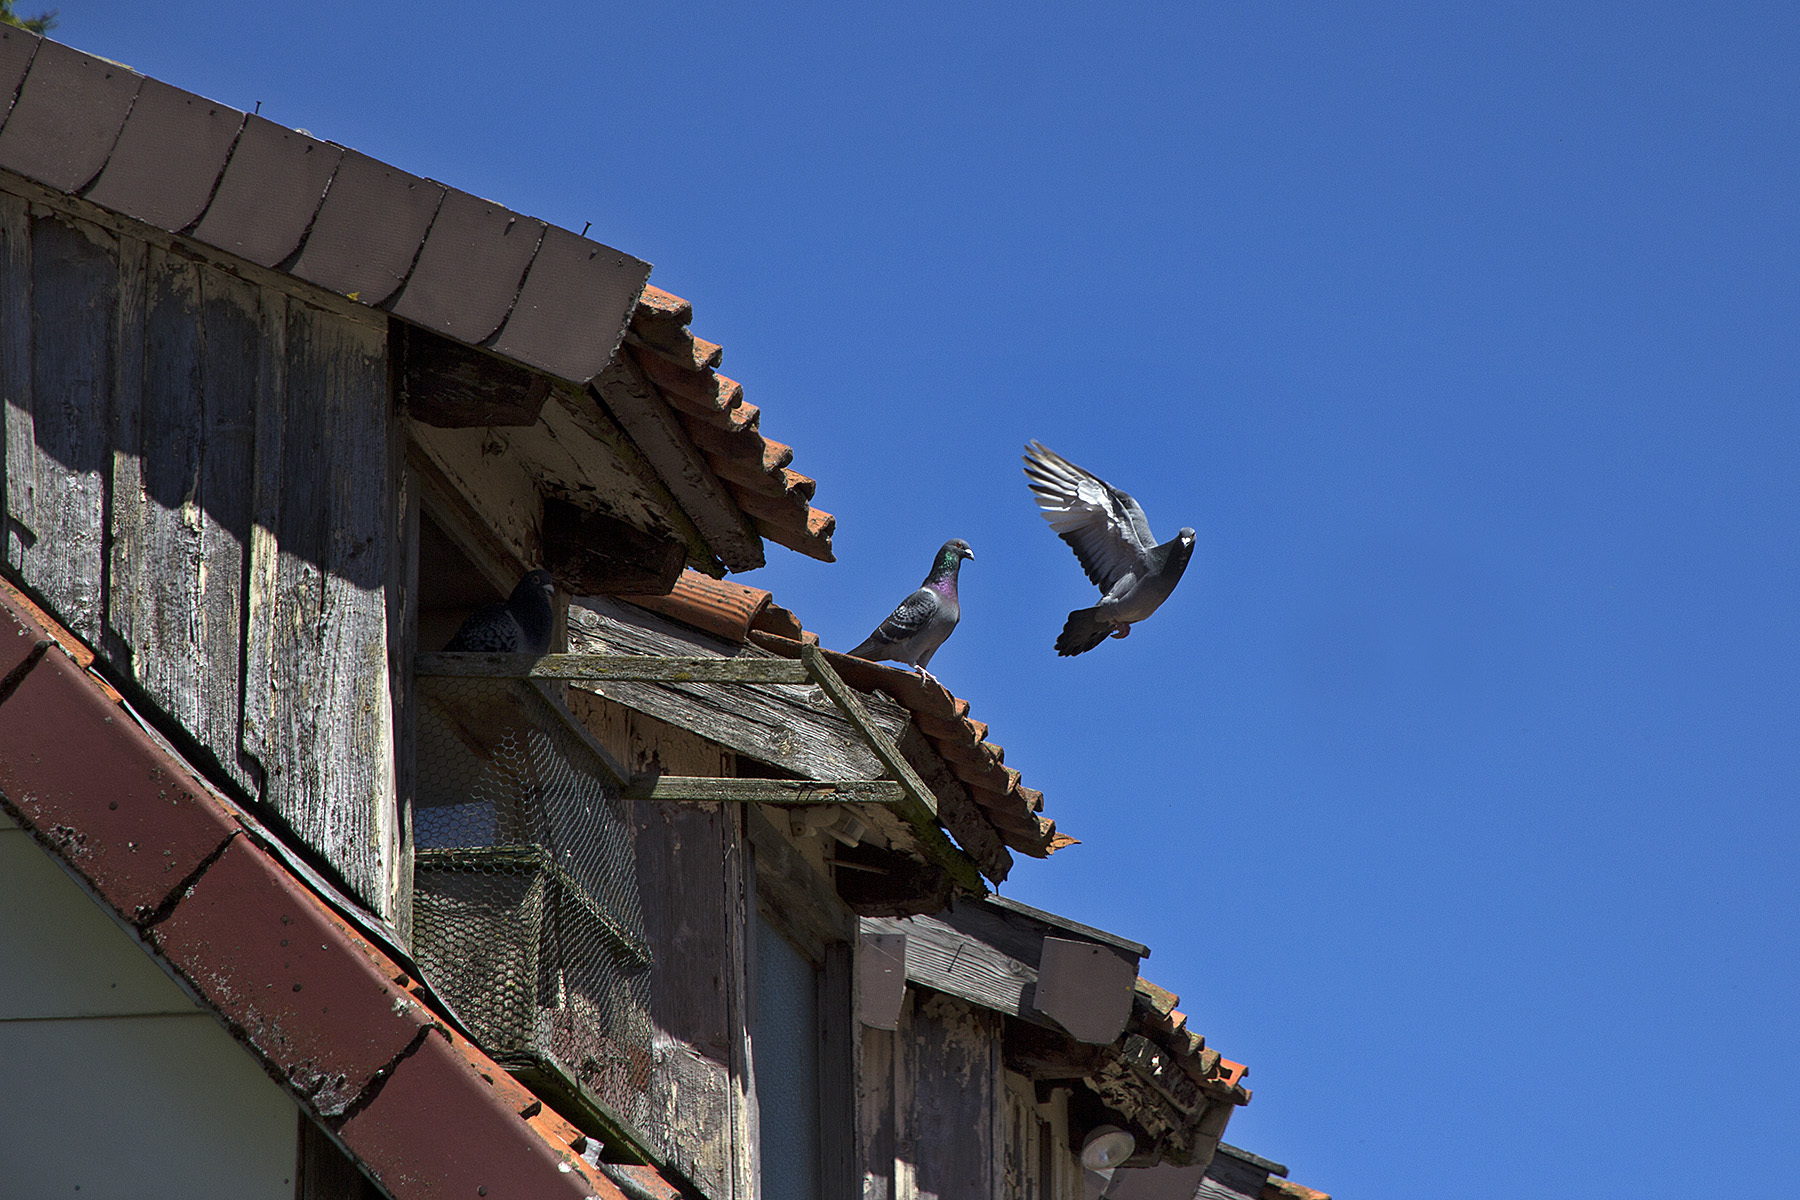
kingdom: Animalia
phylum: Chordata
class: Aves
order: Columbiformes
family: Columbidae
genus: Columba
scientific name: Columba livia
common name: Rock pigeon
